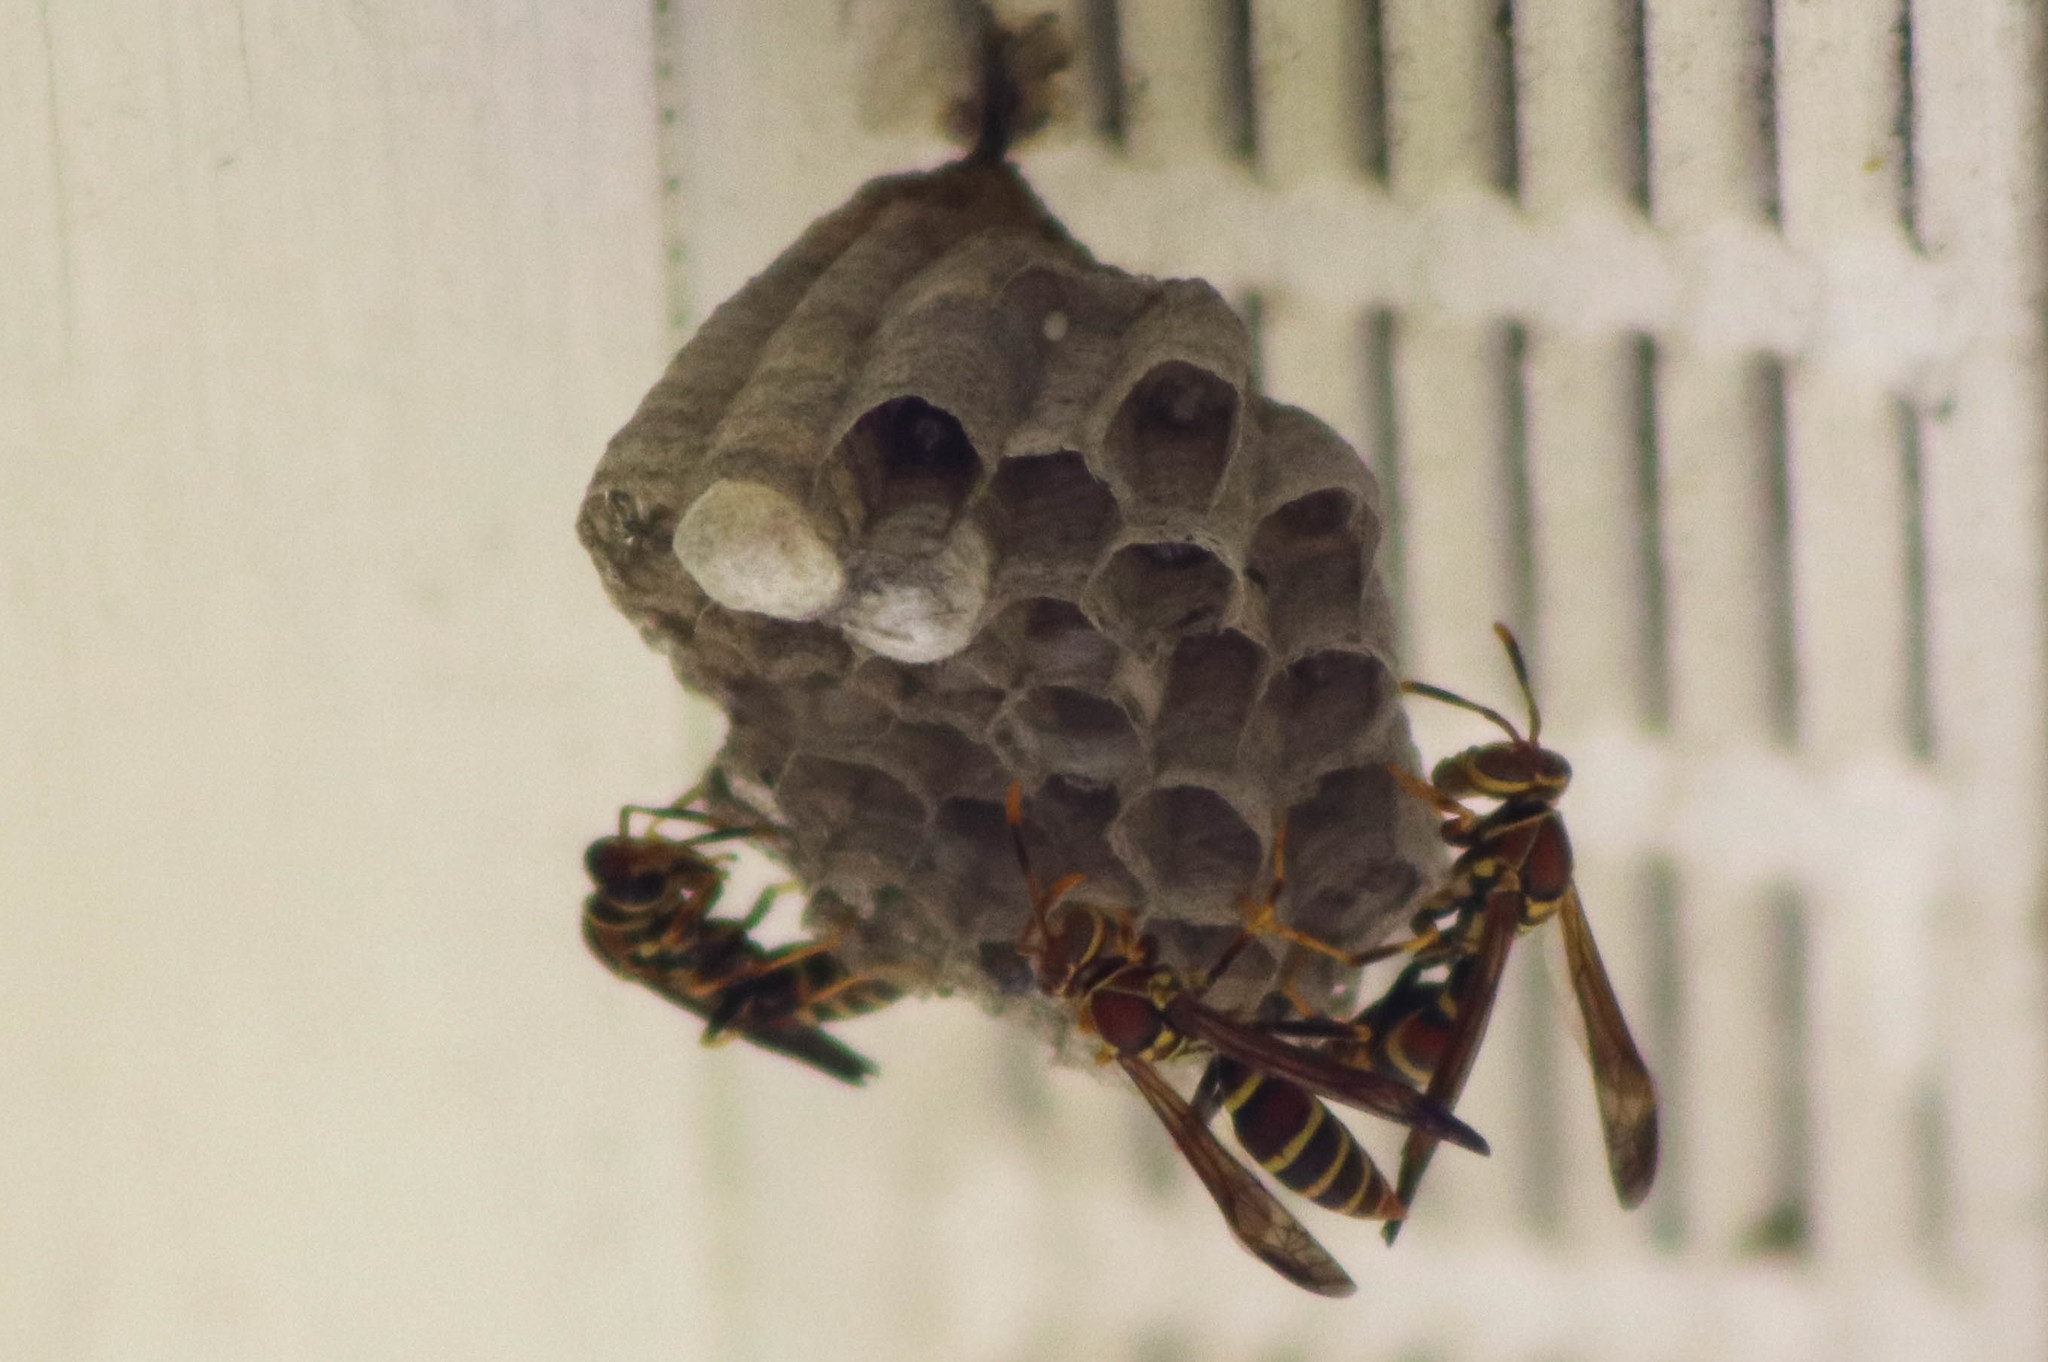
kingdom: Animalia
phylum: Arthropoda
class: Insecta
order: Hymenoptera
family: Eumenidae
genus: Polistes
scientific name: Polistes exclamans
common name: Paper wasp
